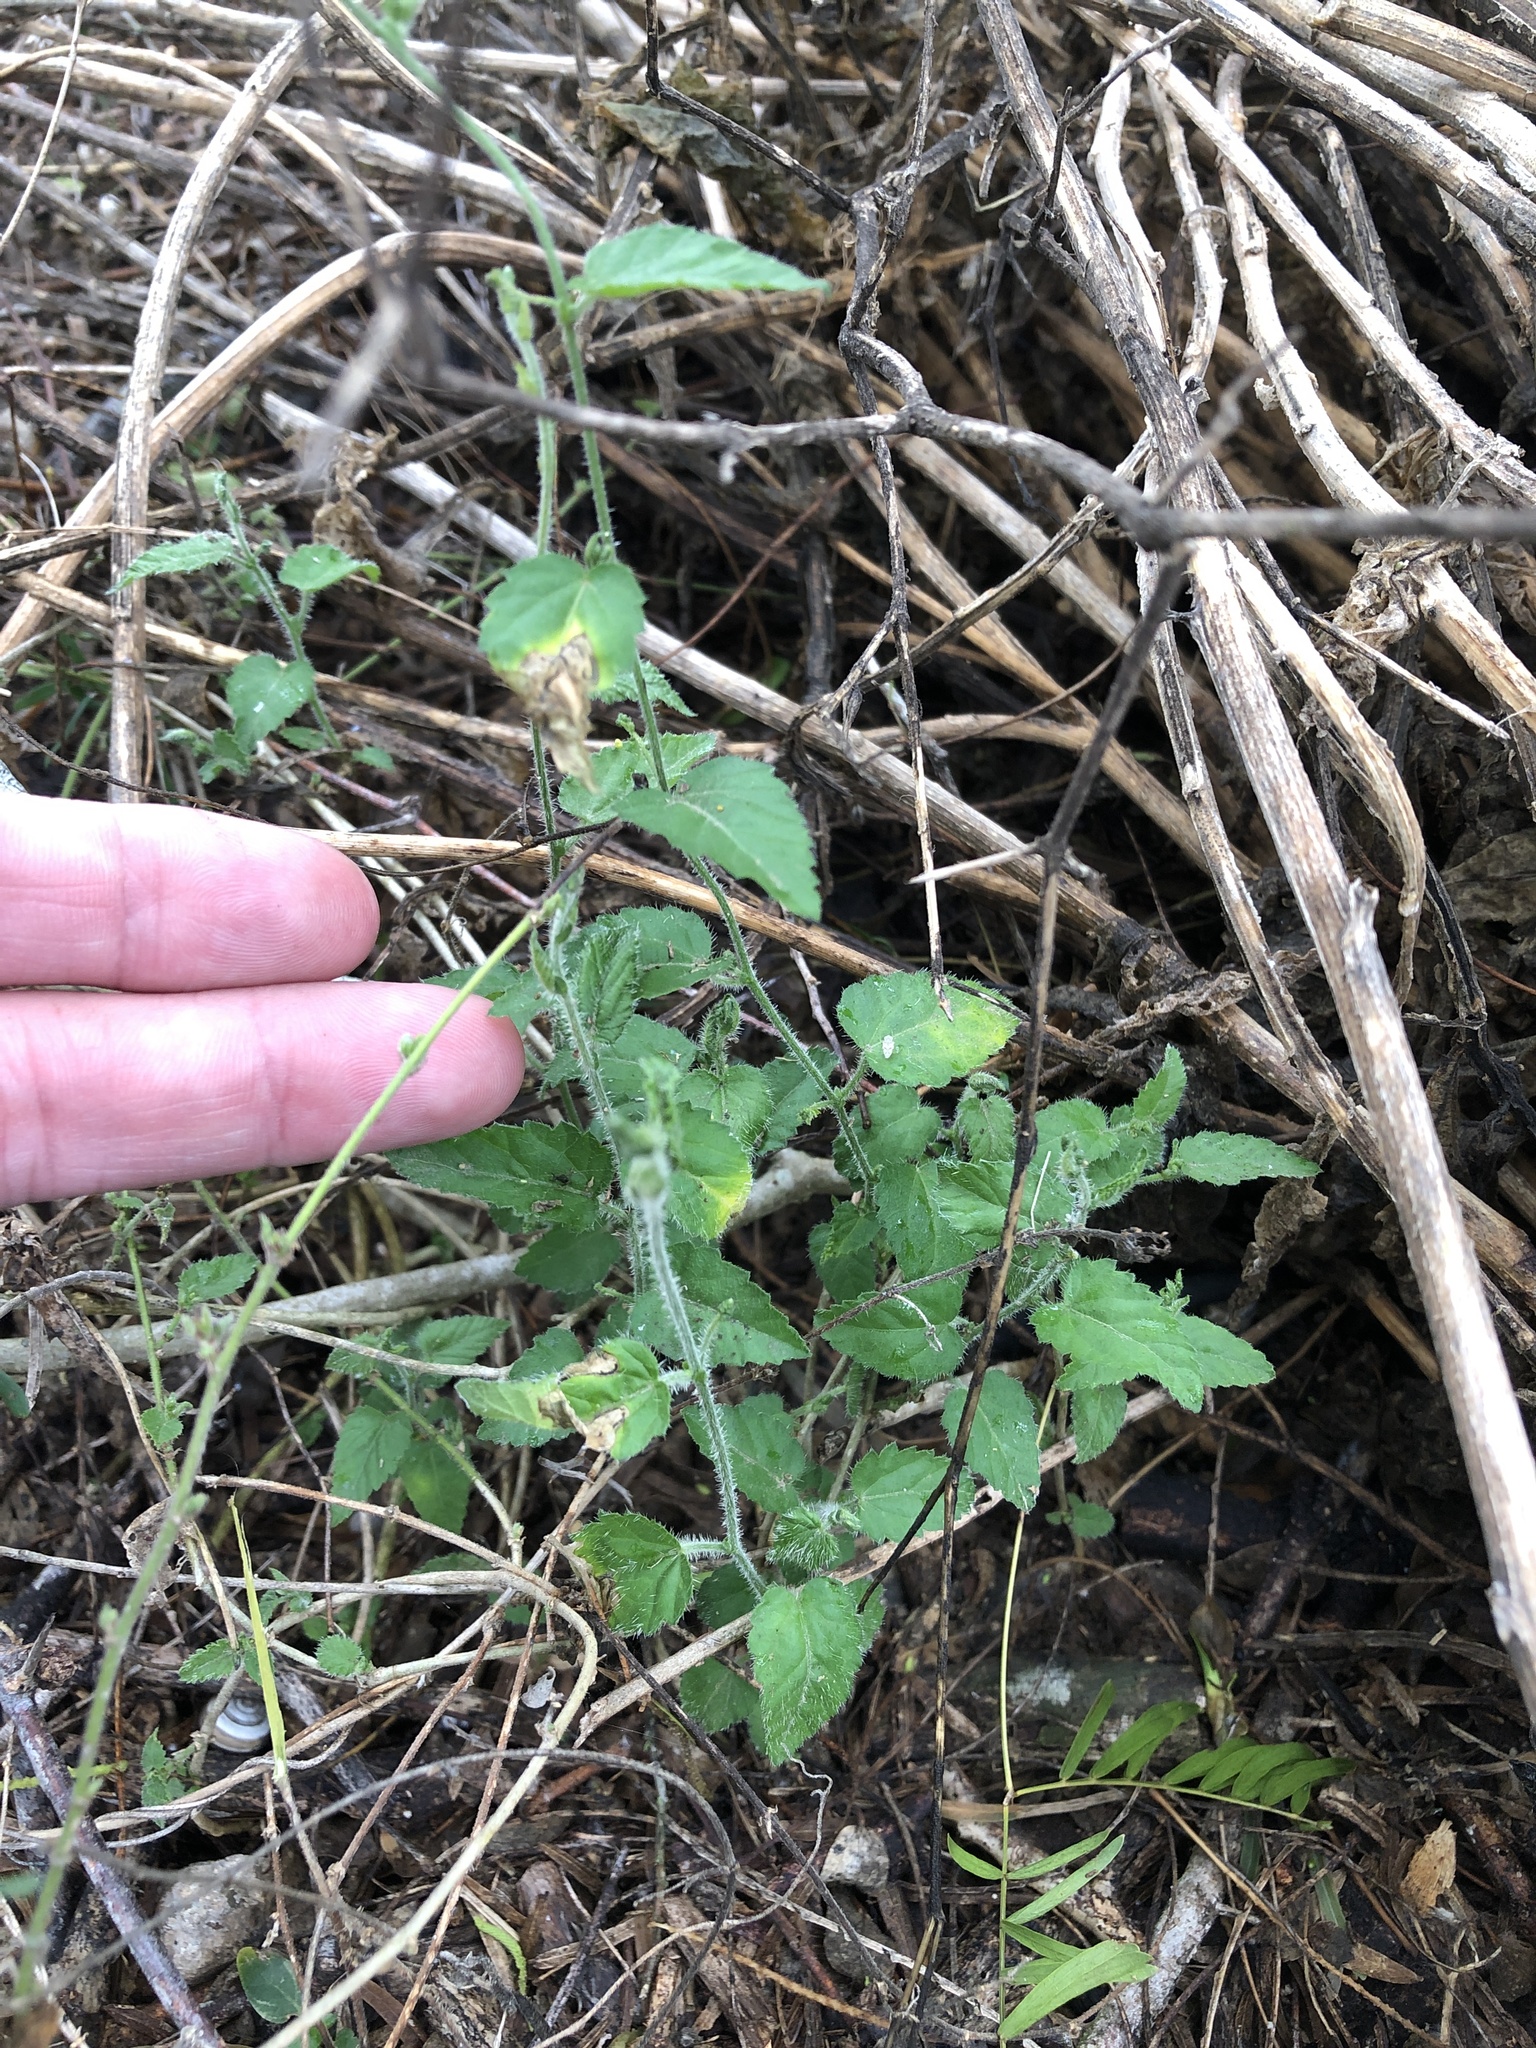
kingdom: Plantae
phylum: Tracheophyta
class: Magnoliopsida
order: Malpighiales
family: Euphorbiaceae
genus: Tragia
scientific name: Tragia glanduligera
